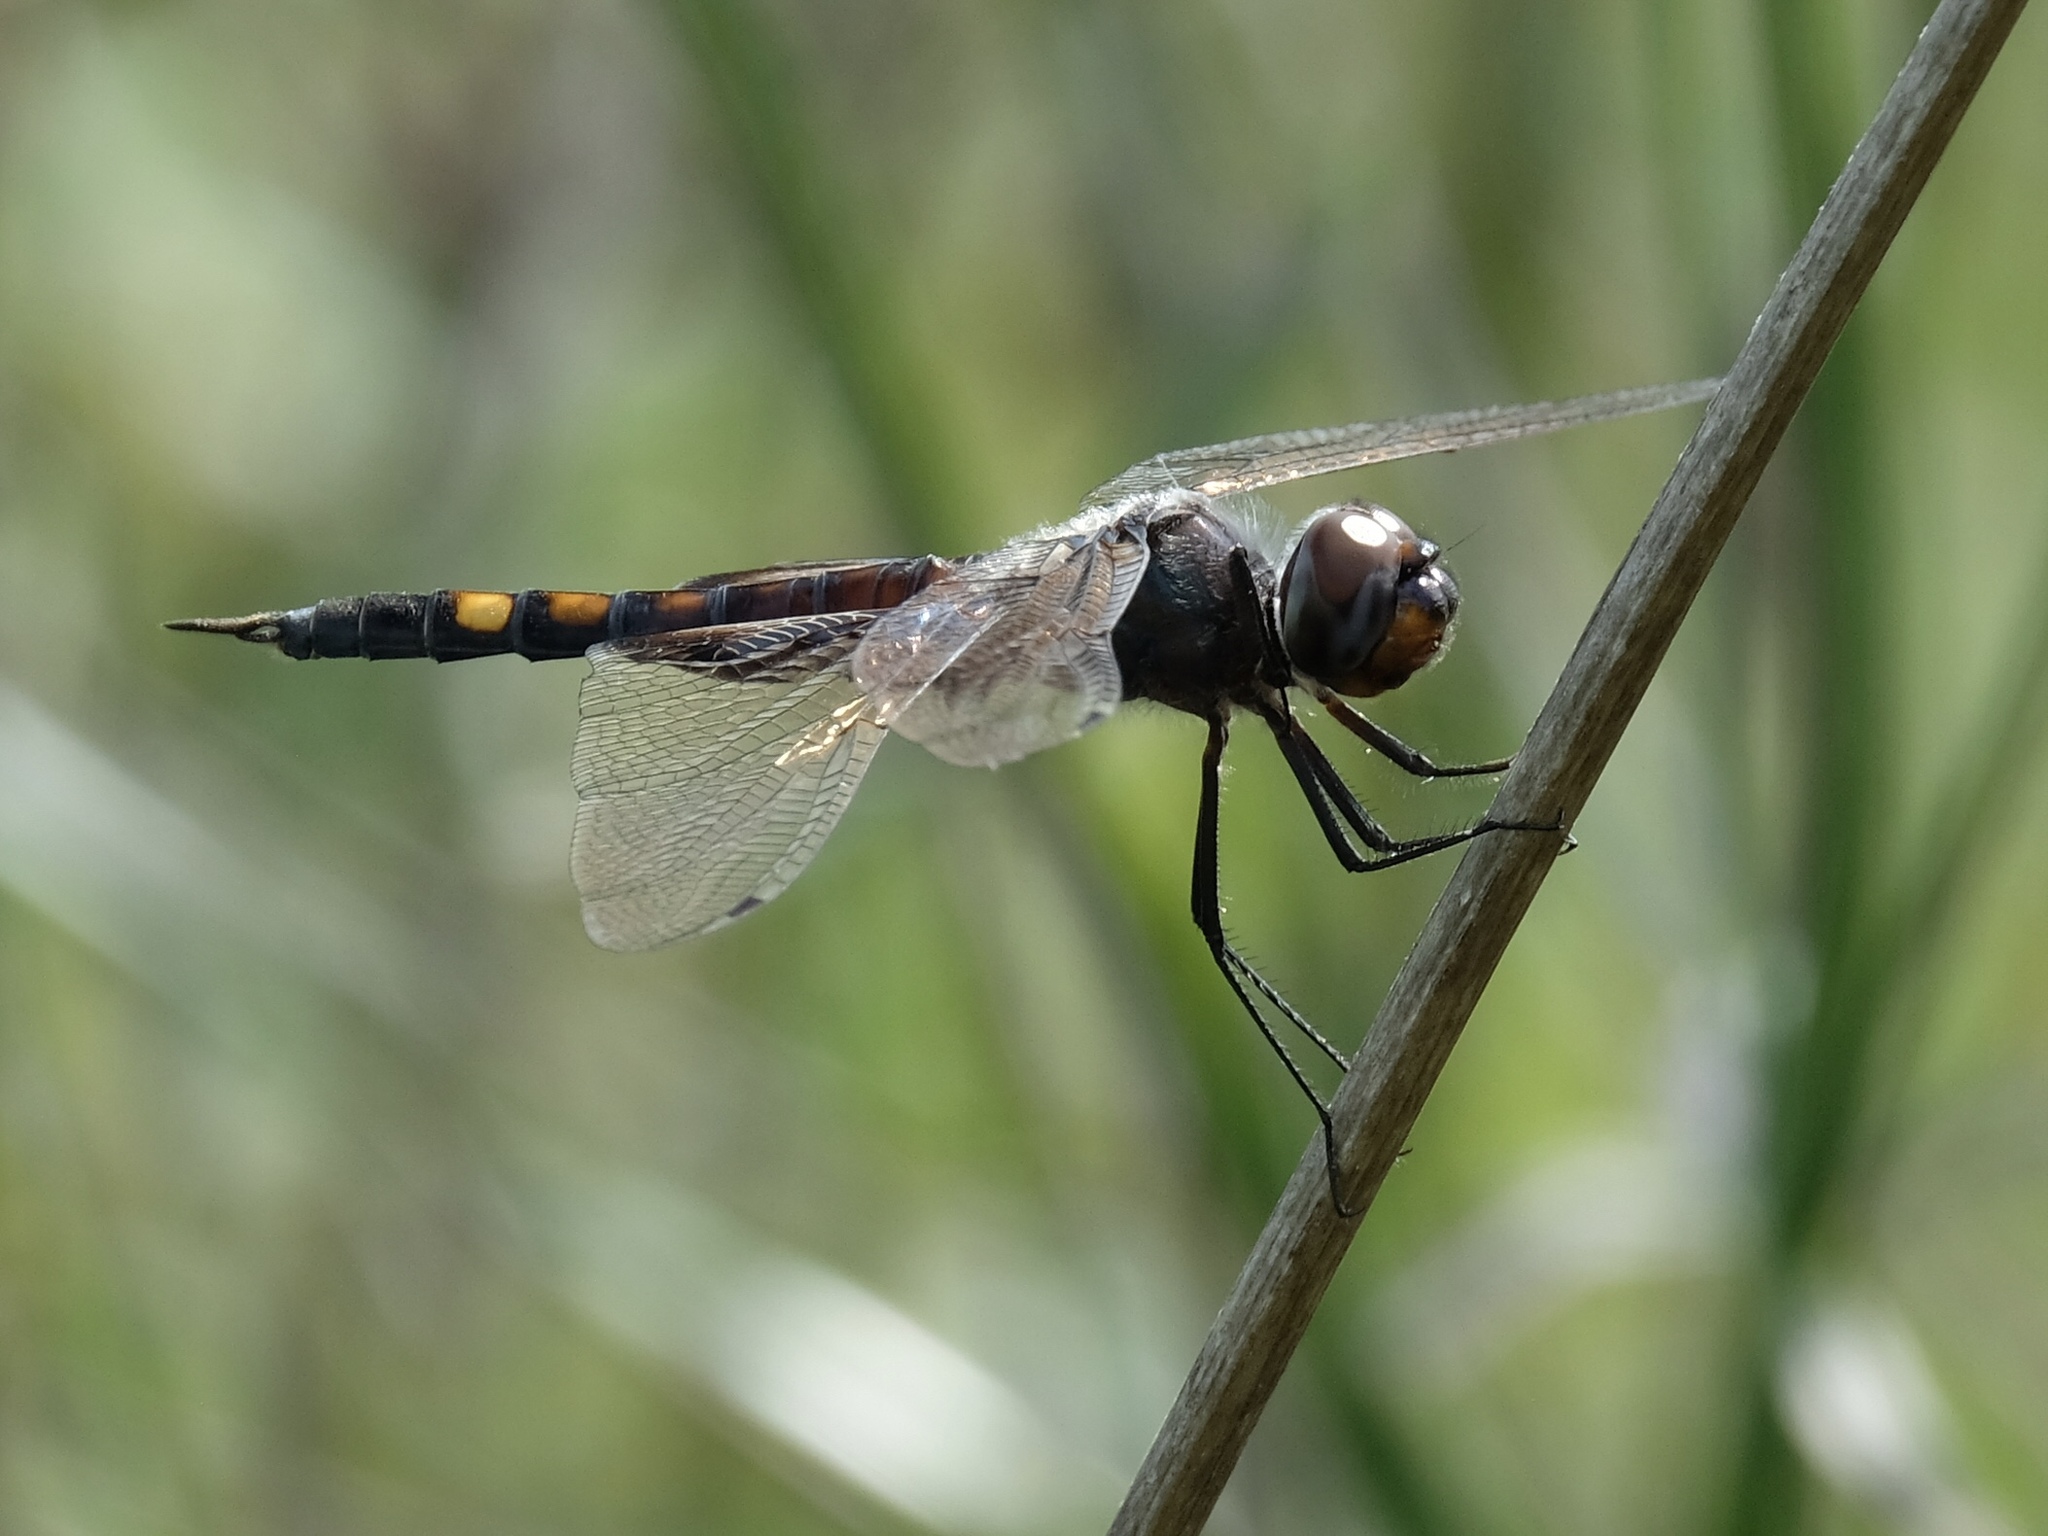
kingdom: Animalia
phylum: Arthropoda
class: Insecta
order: Odonata
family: Libellulidae
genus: Tramea
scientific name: Tramea lacerata
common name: Black saddlebags
